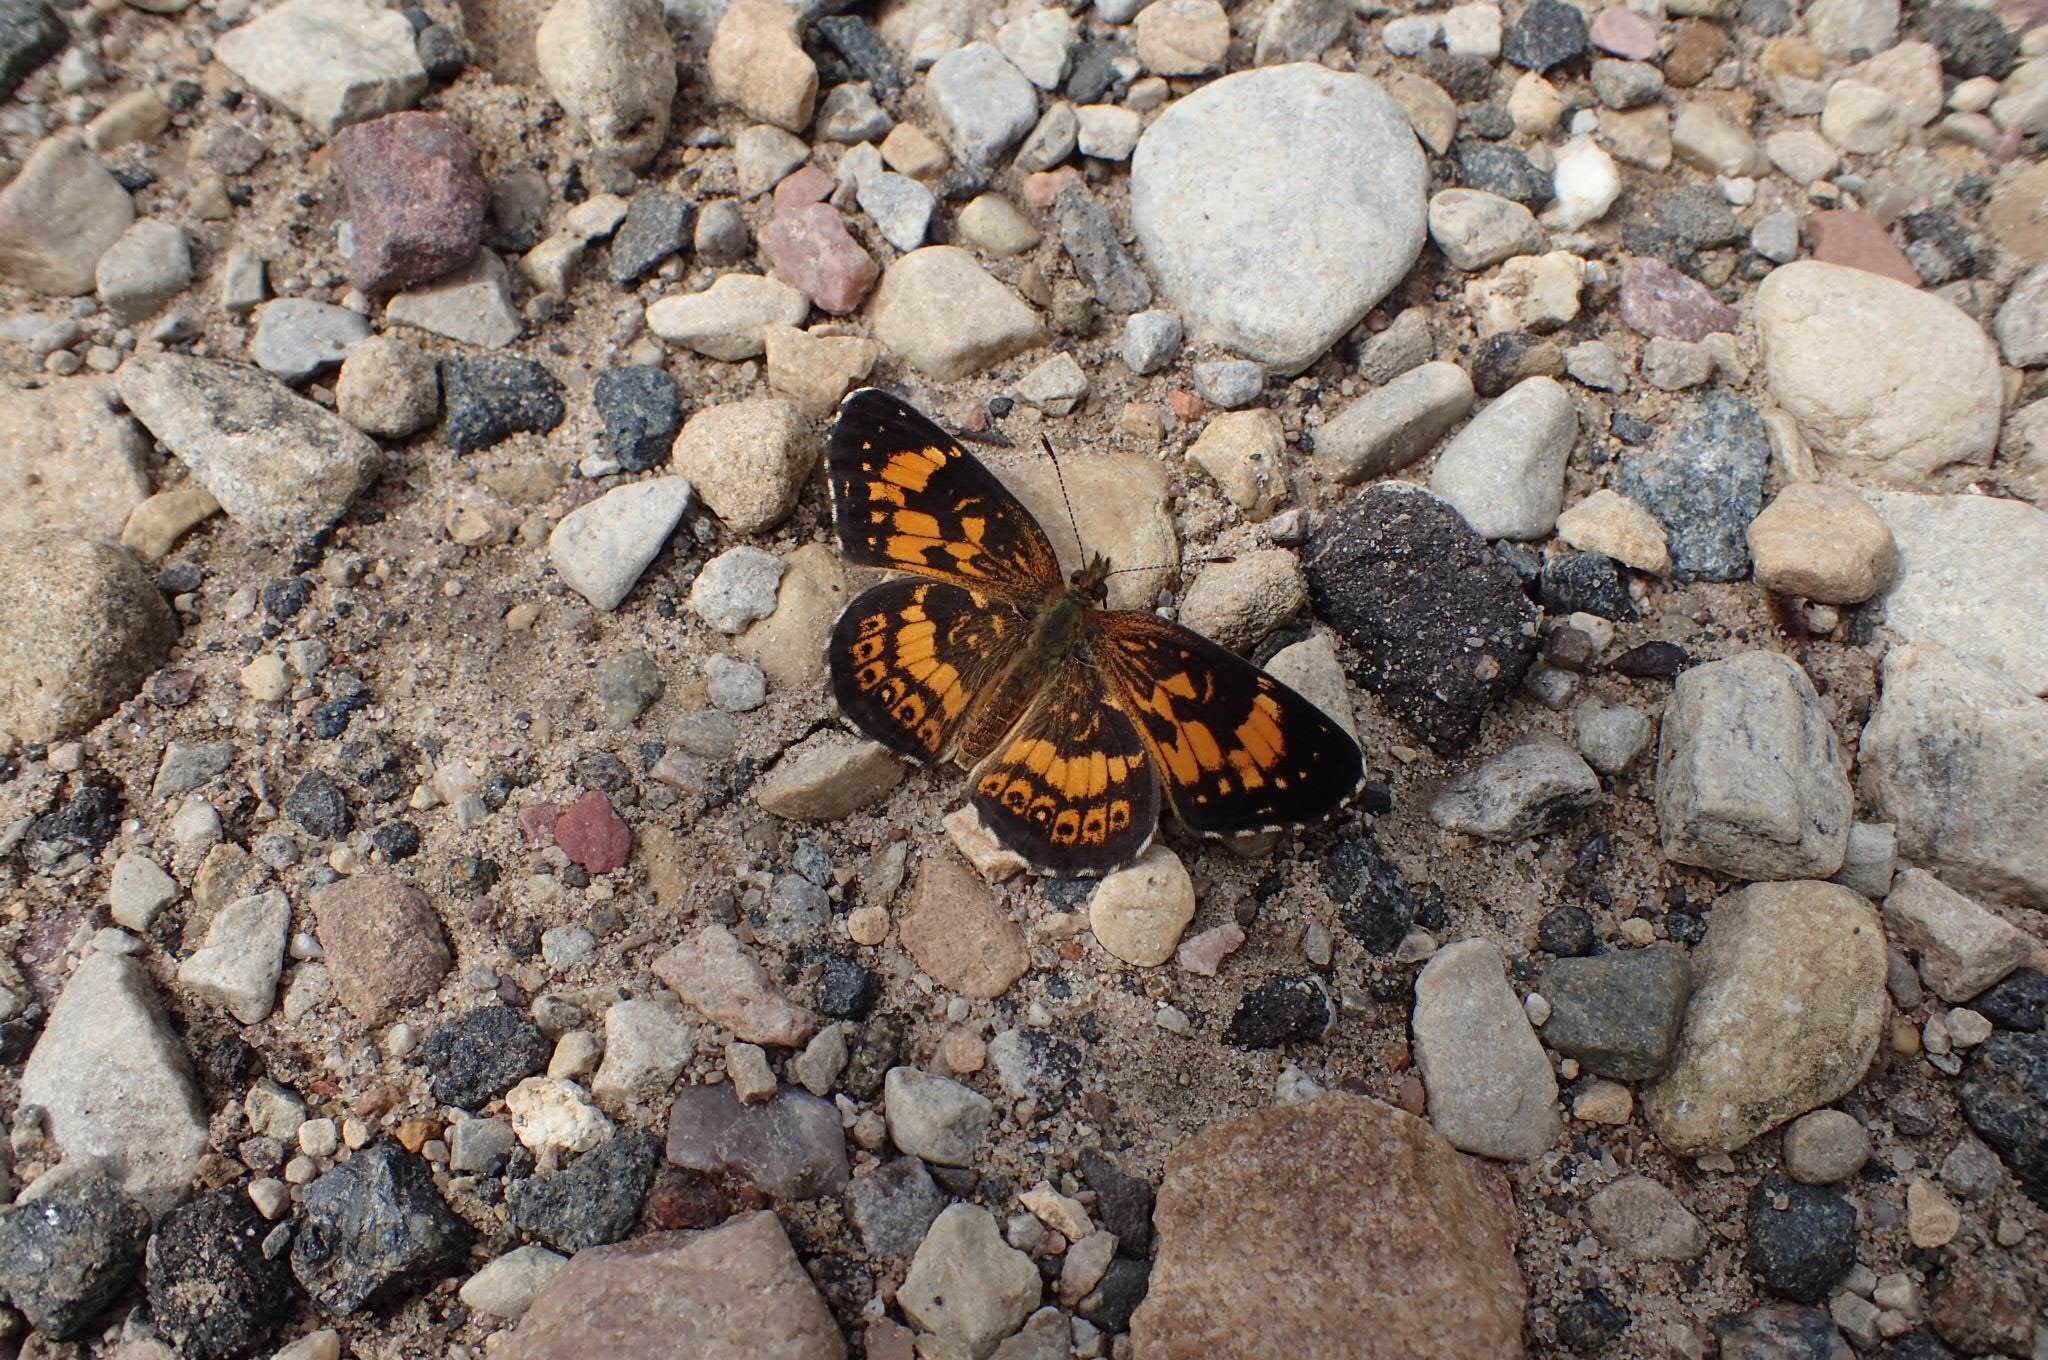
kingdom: Animalia
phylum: Arthropoda
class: Insecta
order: Lepidoptera
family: Nymphalidae
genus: Chlosyne
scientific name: Chlosyne nycteis
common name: Silvery checkerspot
